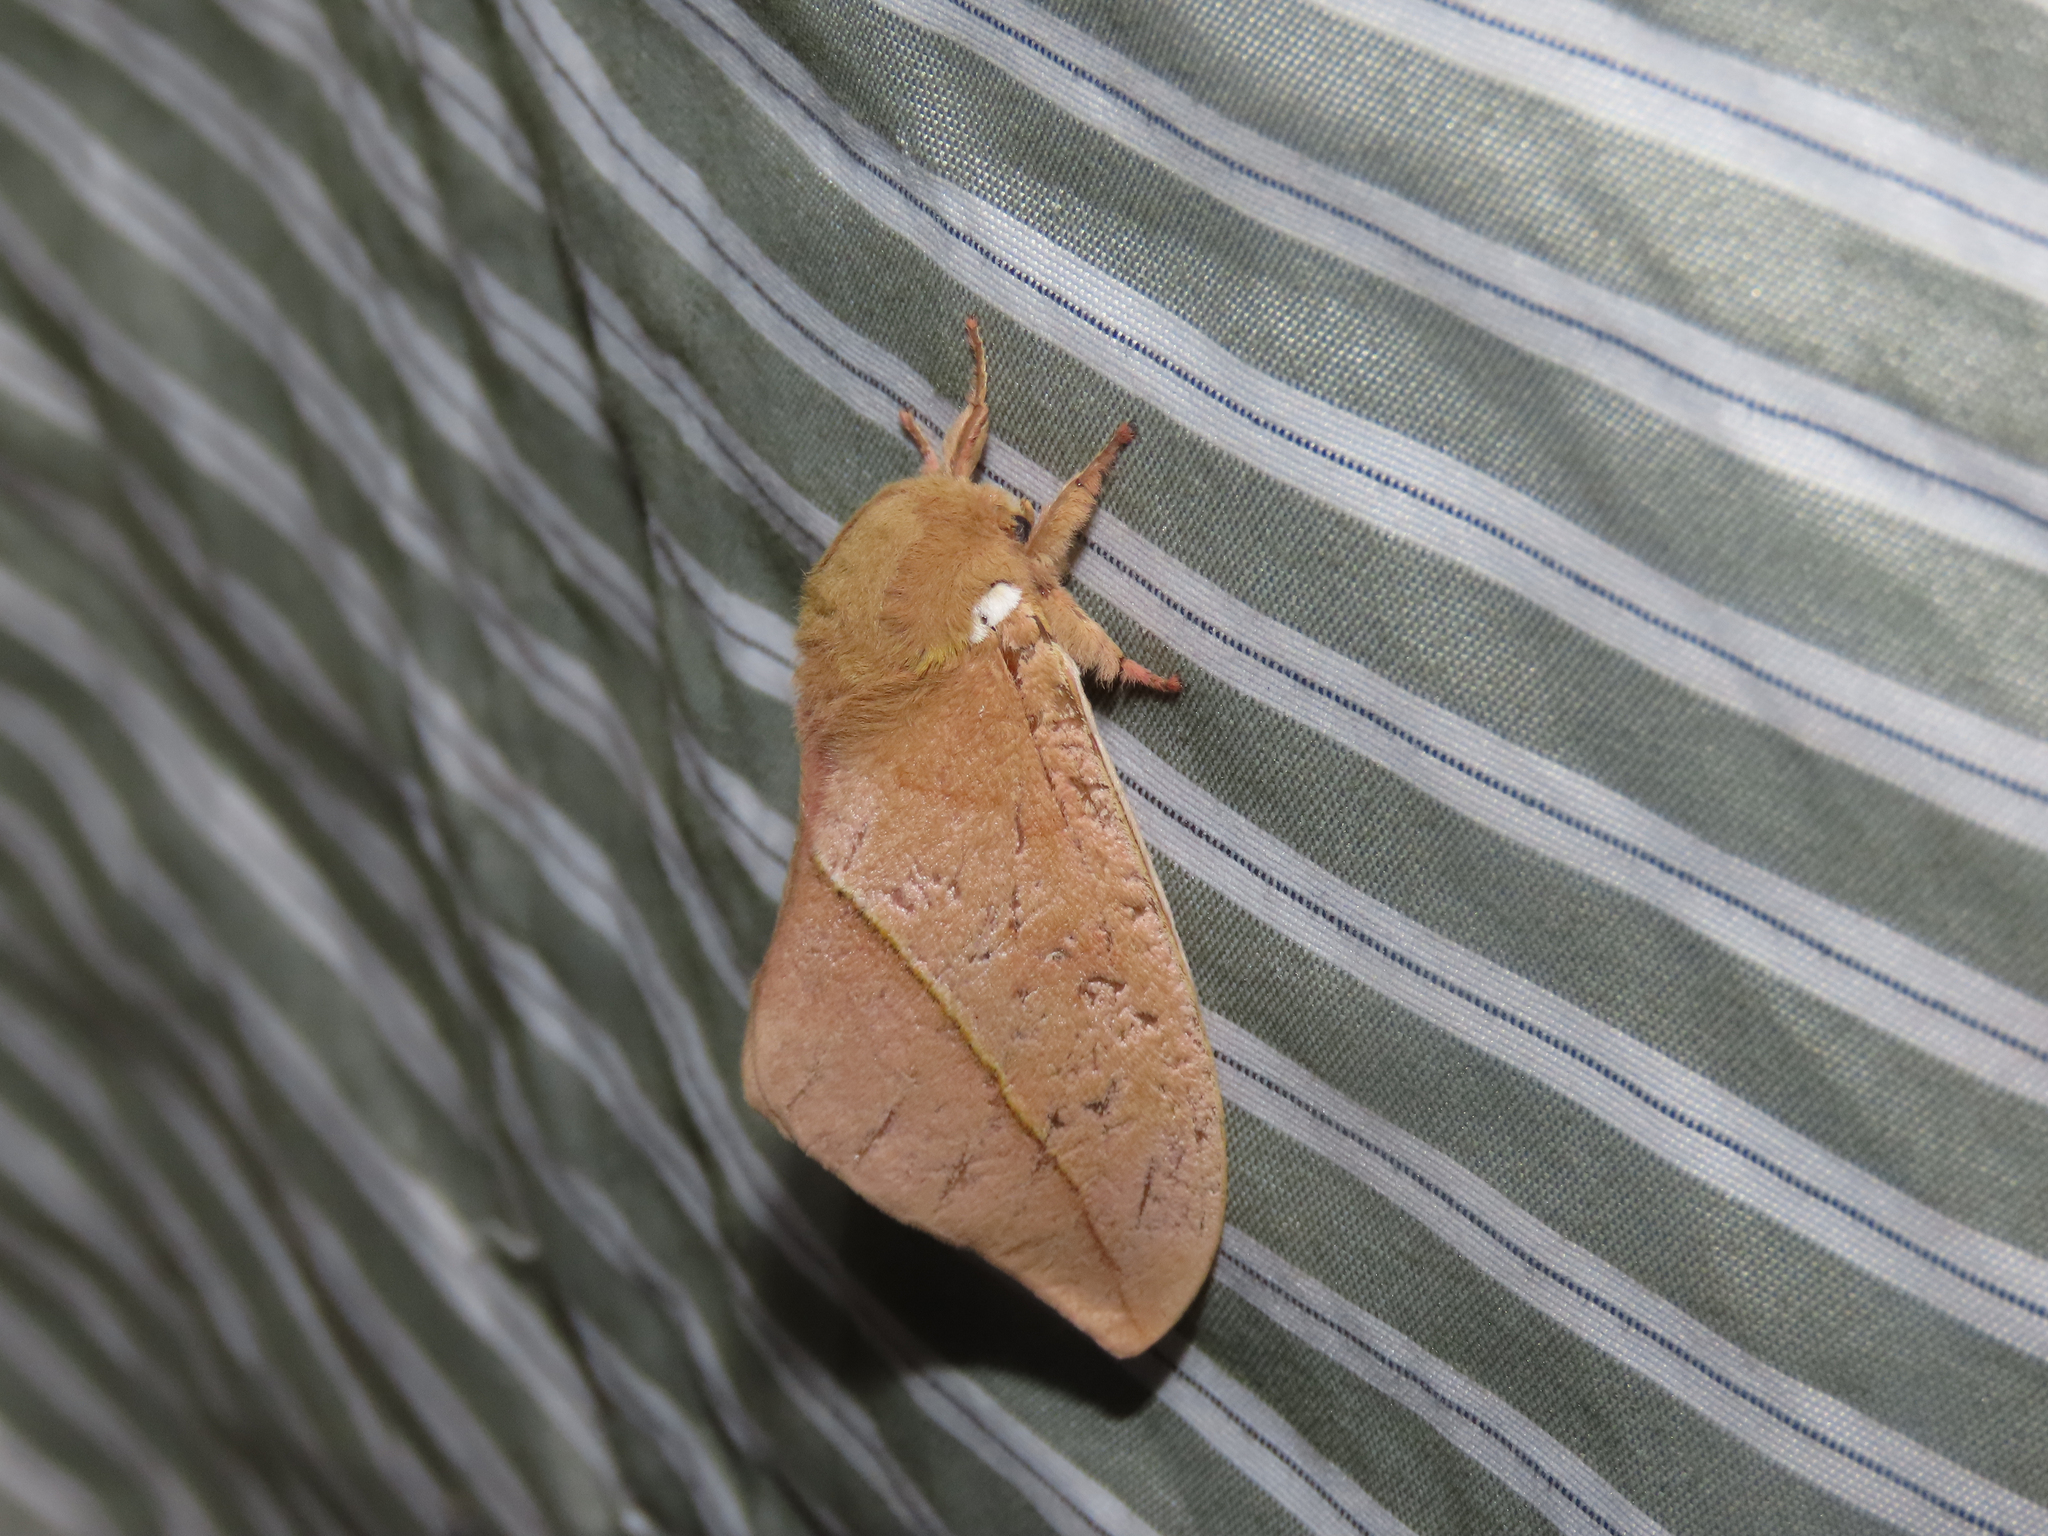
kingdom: Animalia
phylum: Arthropoda
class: Insecta
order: Lepidoptera
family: Saturniidae
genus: Automeris
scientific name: Automeris cecrops
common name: Cecrops eyed silkmoth
